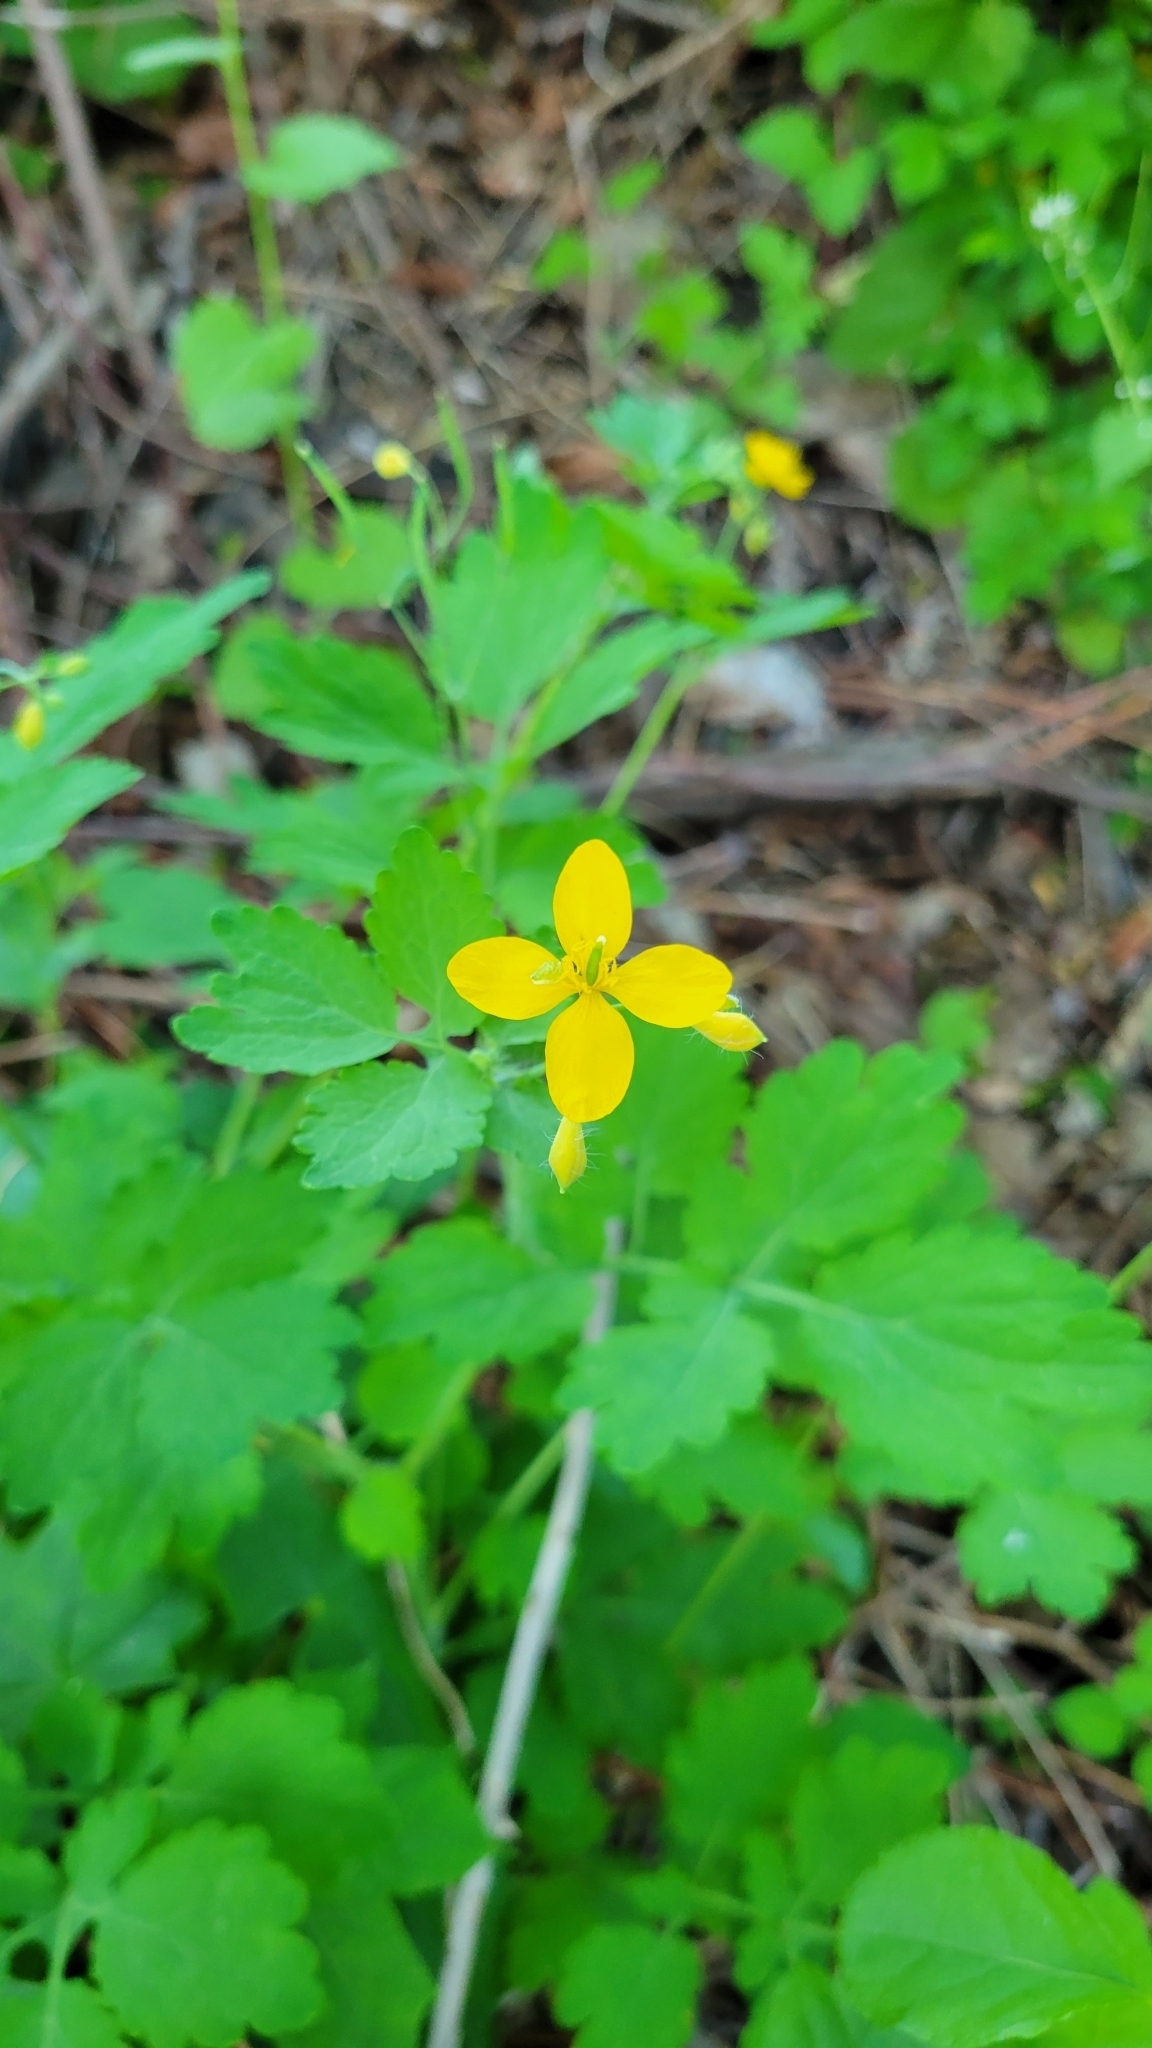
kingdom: Plantae
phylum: Tracheophyta
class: Magnoliopsida
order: Ranunculales
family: Papaveraceae
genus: Chelidonium
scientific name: Chelidonium majus
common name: Greater celandine
